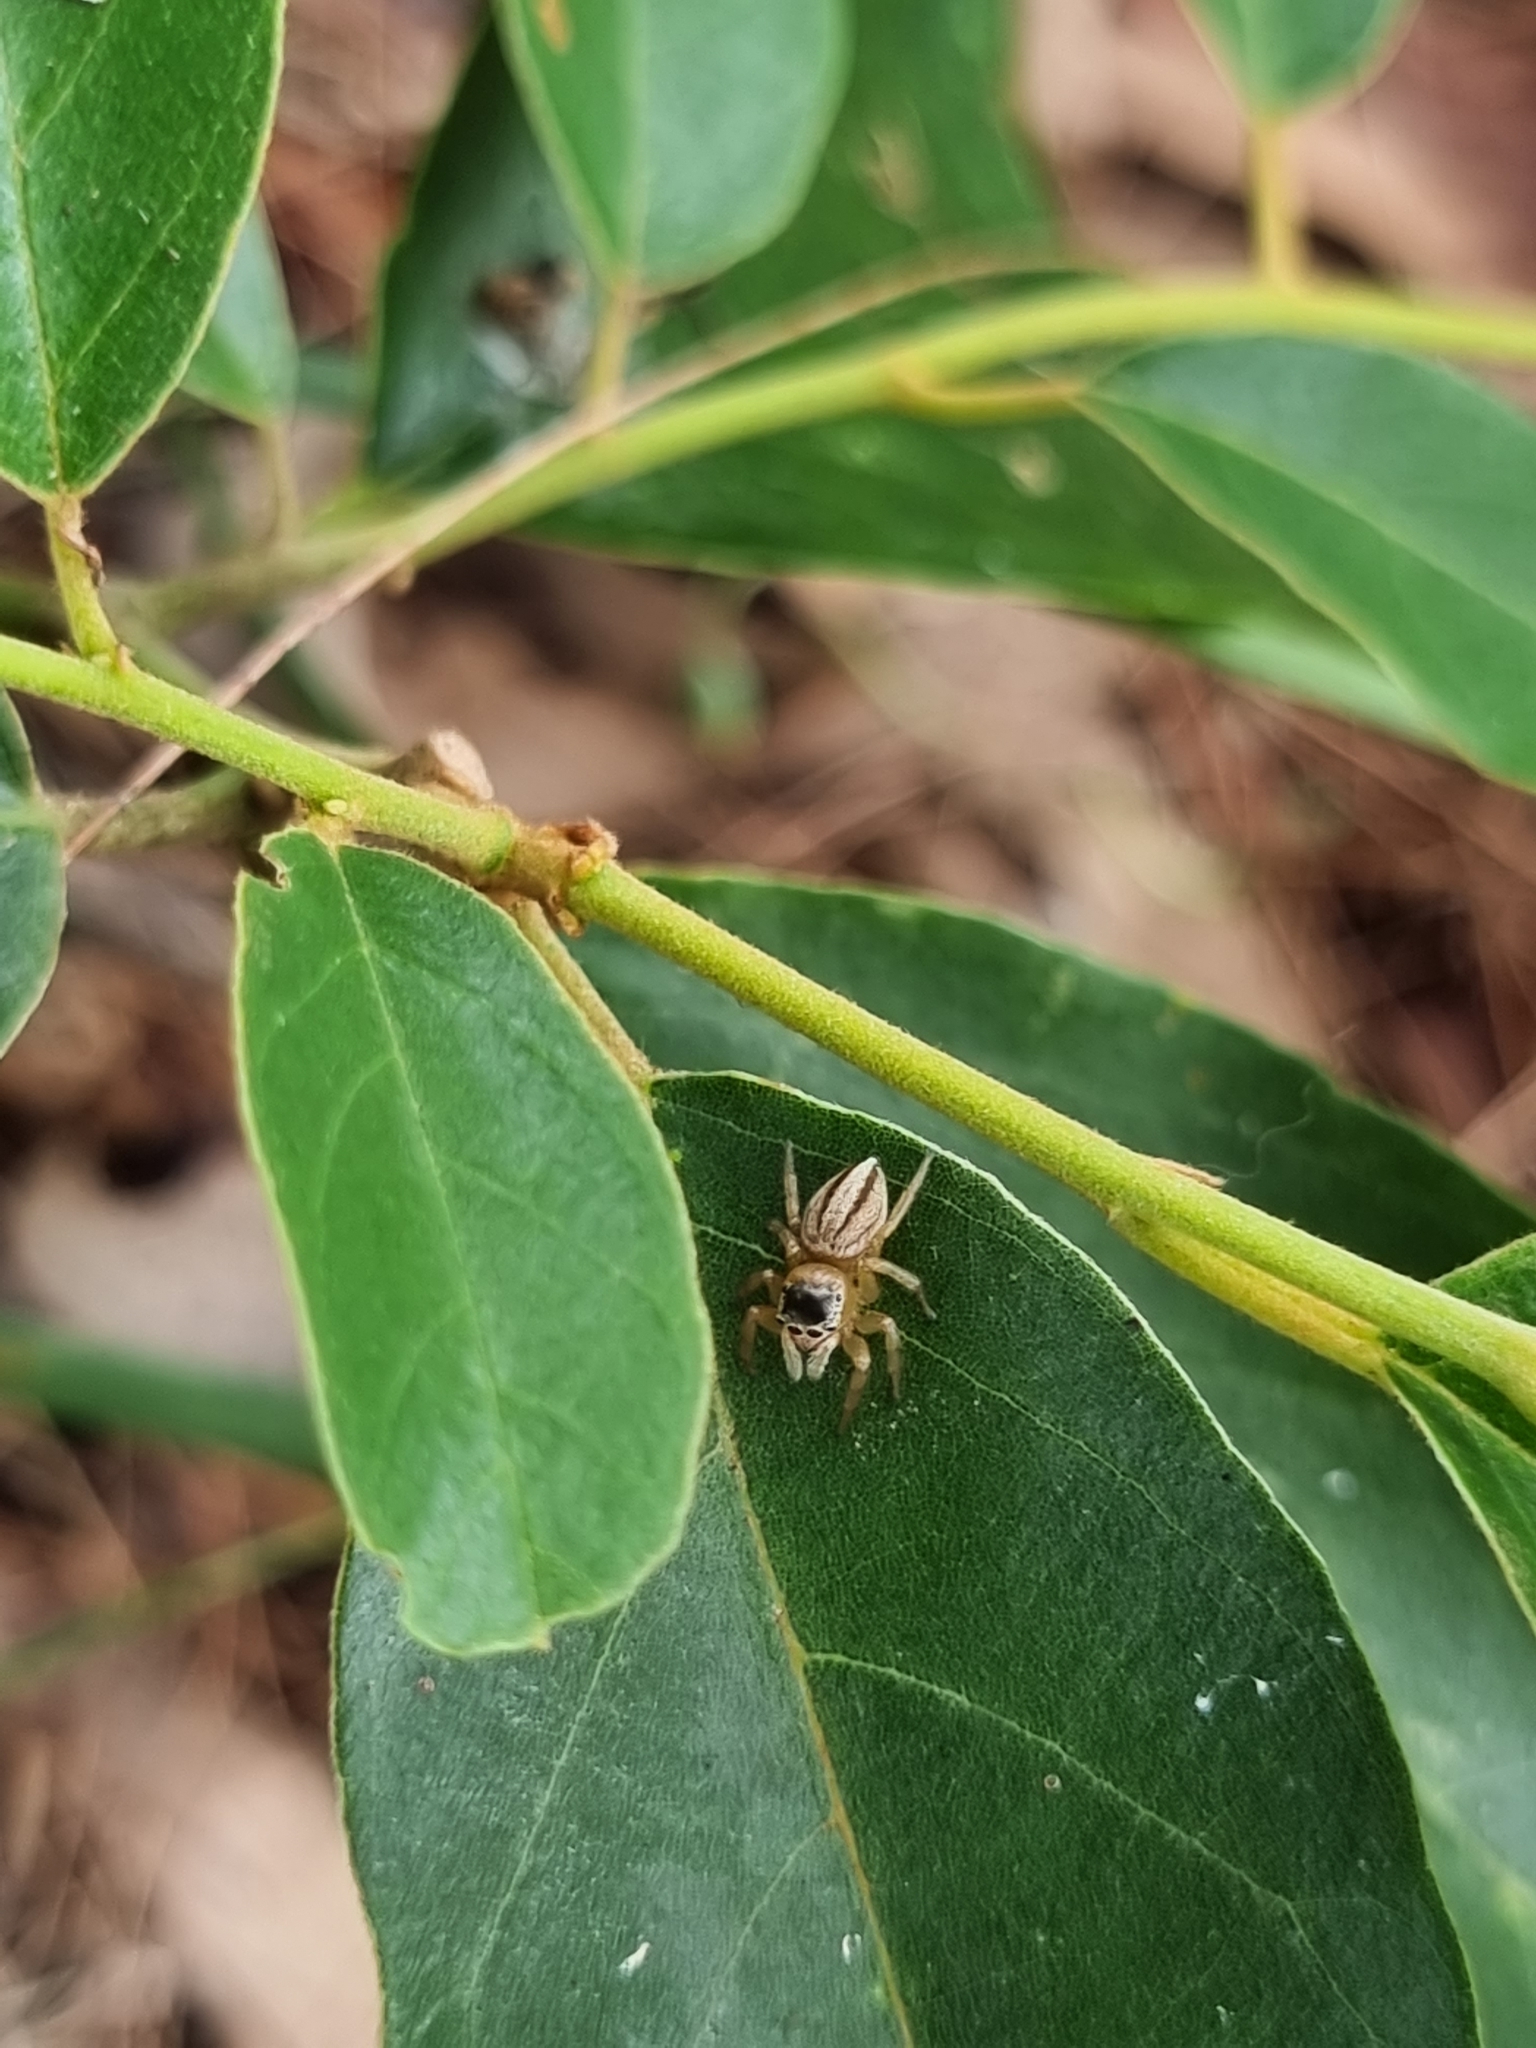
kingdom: Animalia
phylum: Arthropoda
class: Arachnida
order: Araneae
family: Salticidae
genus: Maratus
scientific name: Maratus scutulatus
